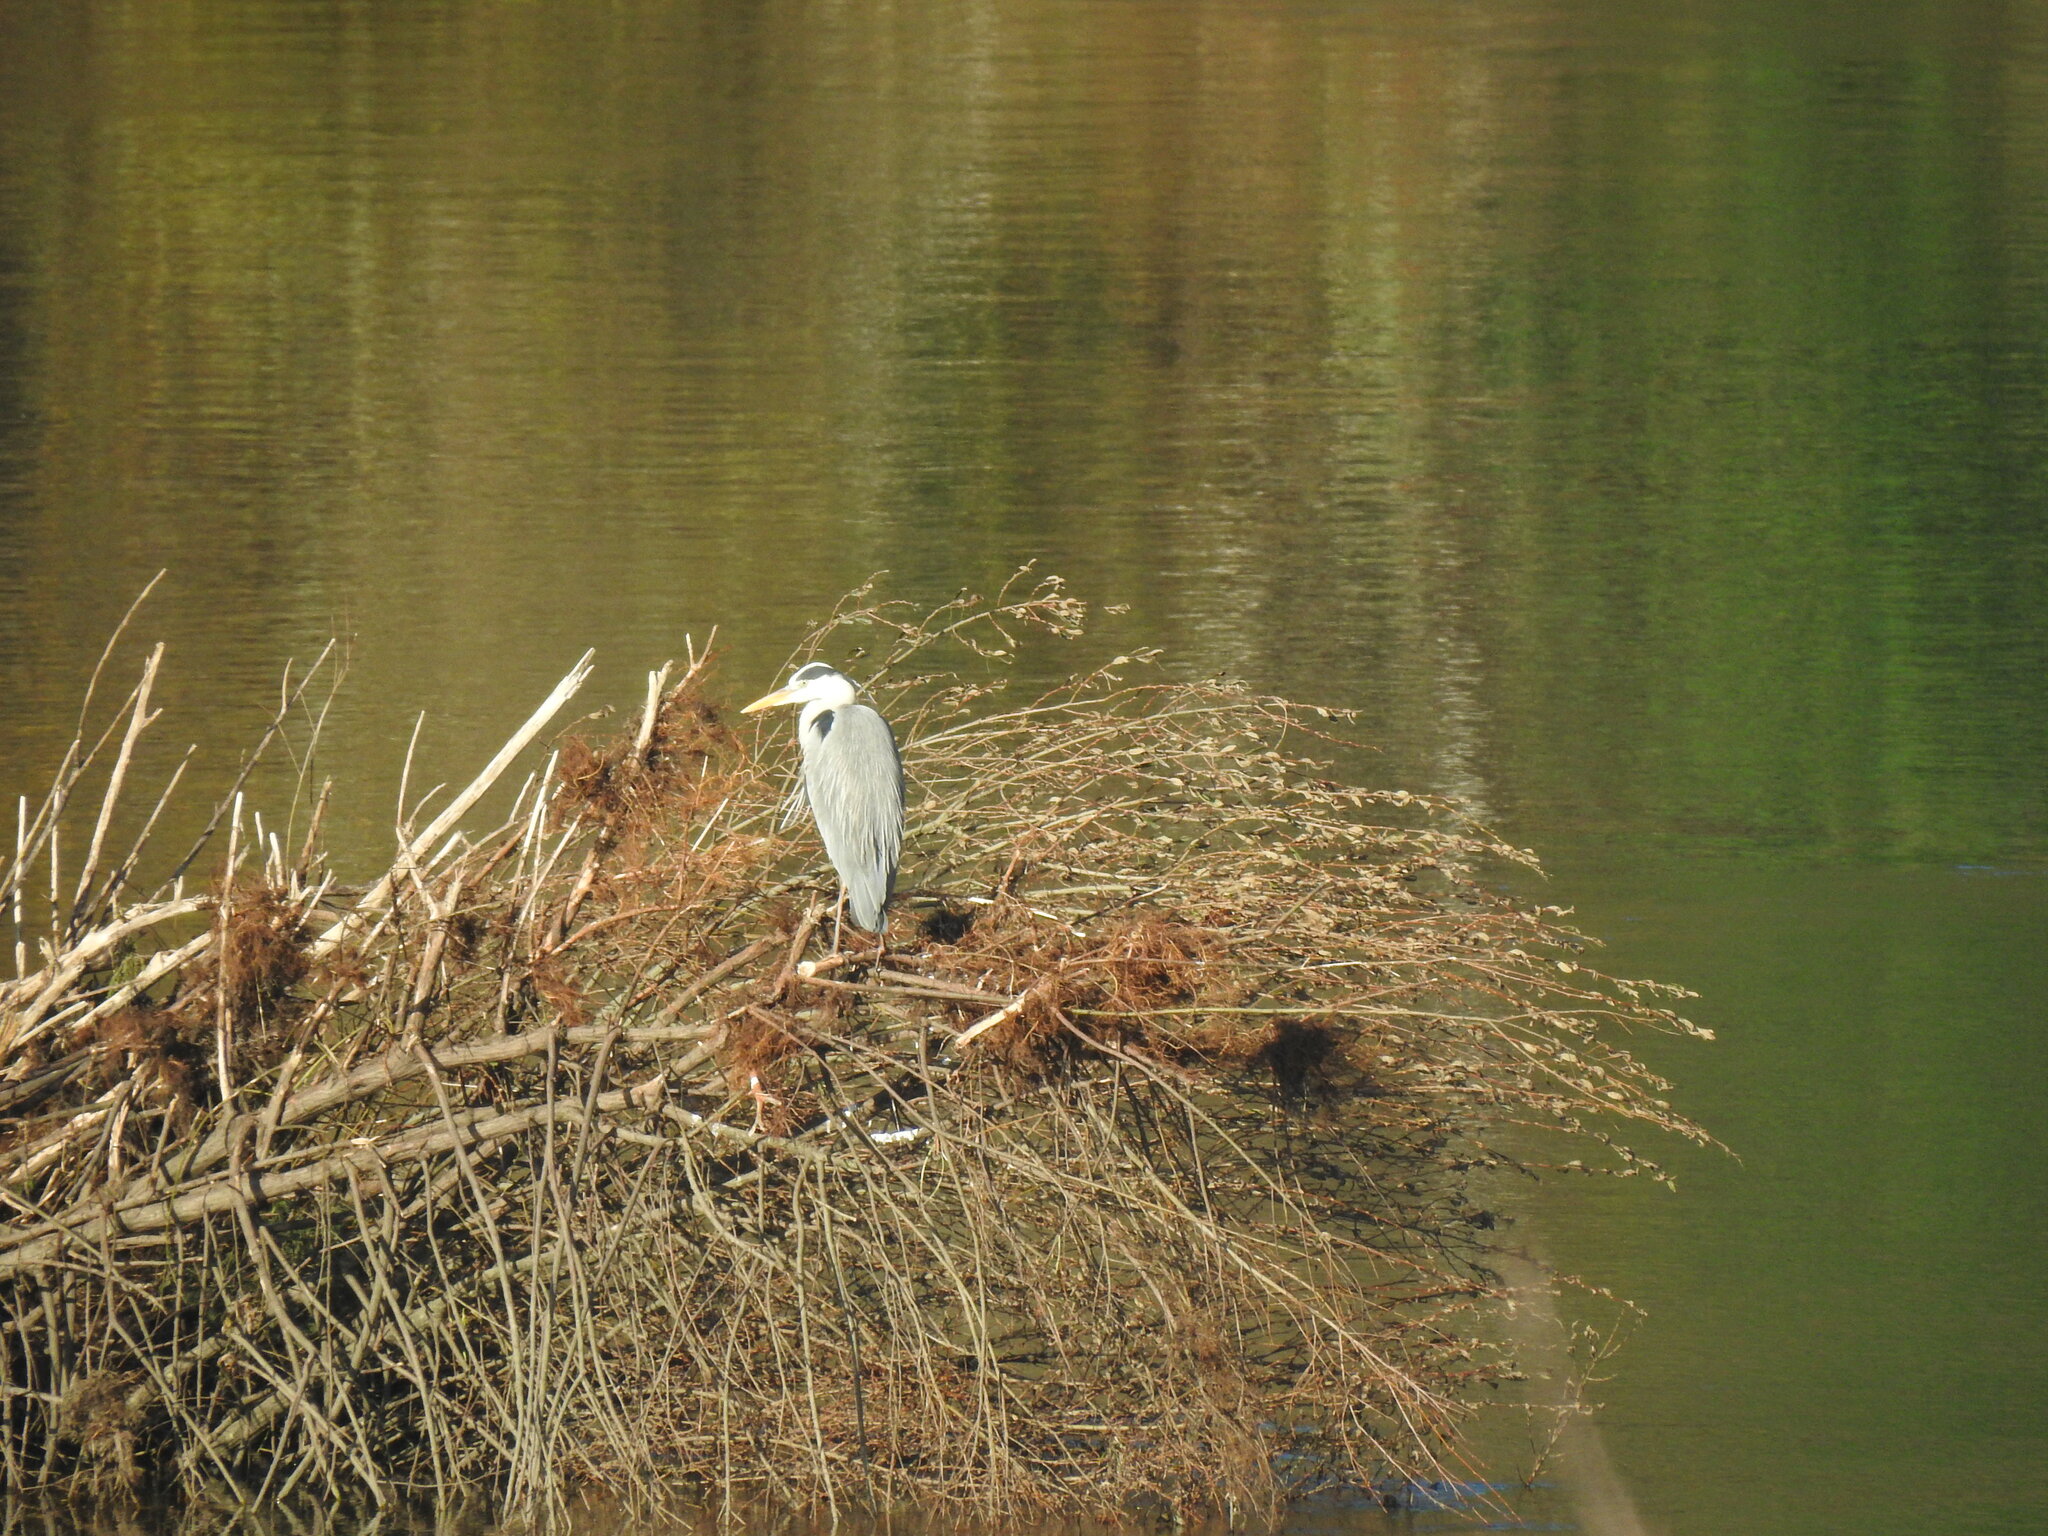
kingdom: Animalia
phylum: Chordata
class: Aves
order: Pelecaniformes
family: Ardeidae
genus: Ardea
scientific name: Ardea cinerea
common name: Grey heron
